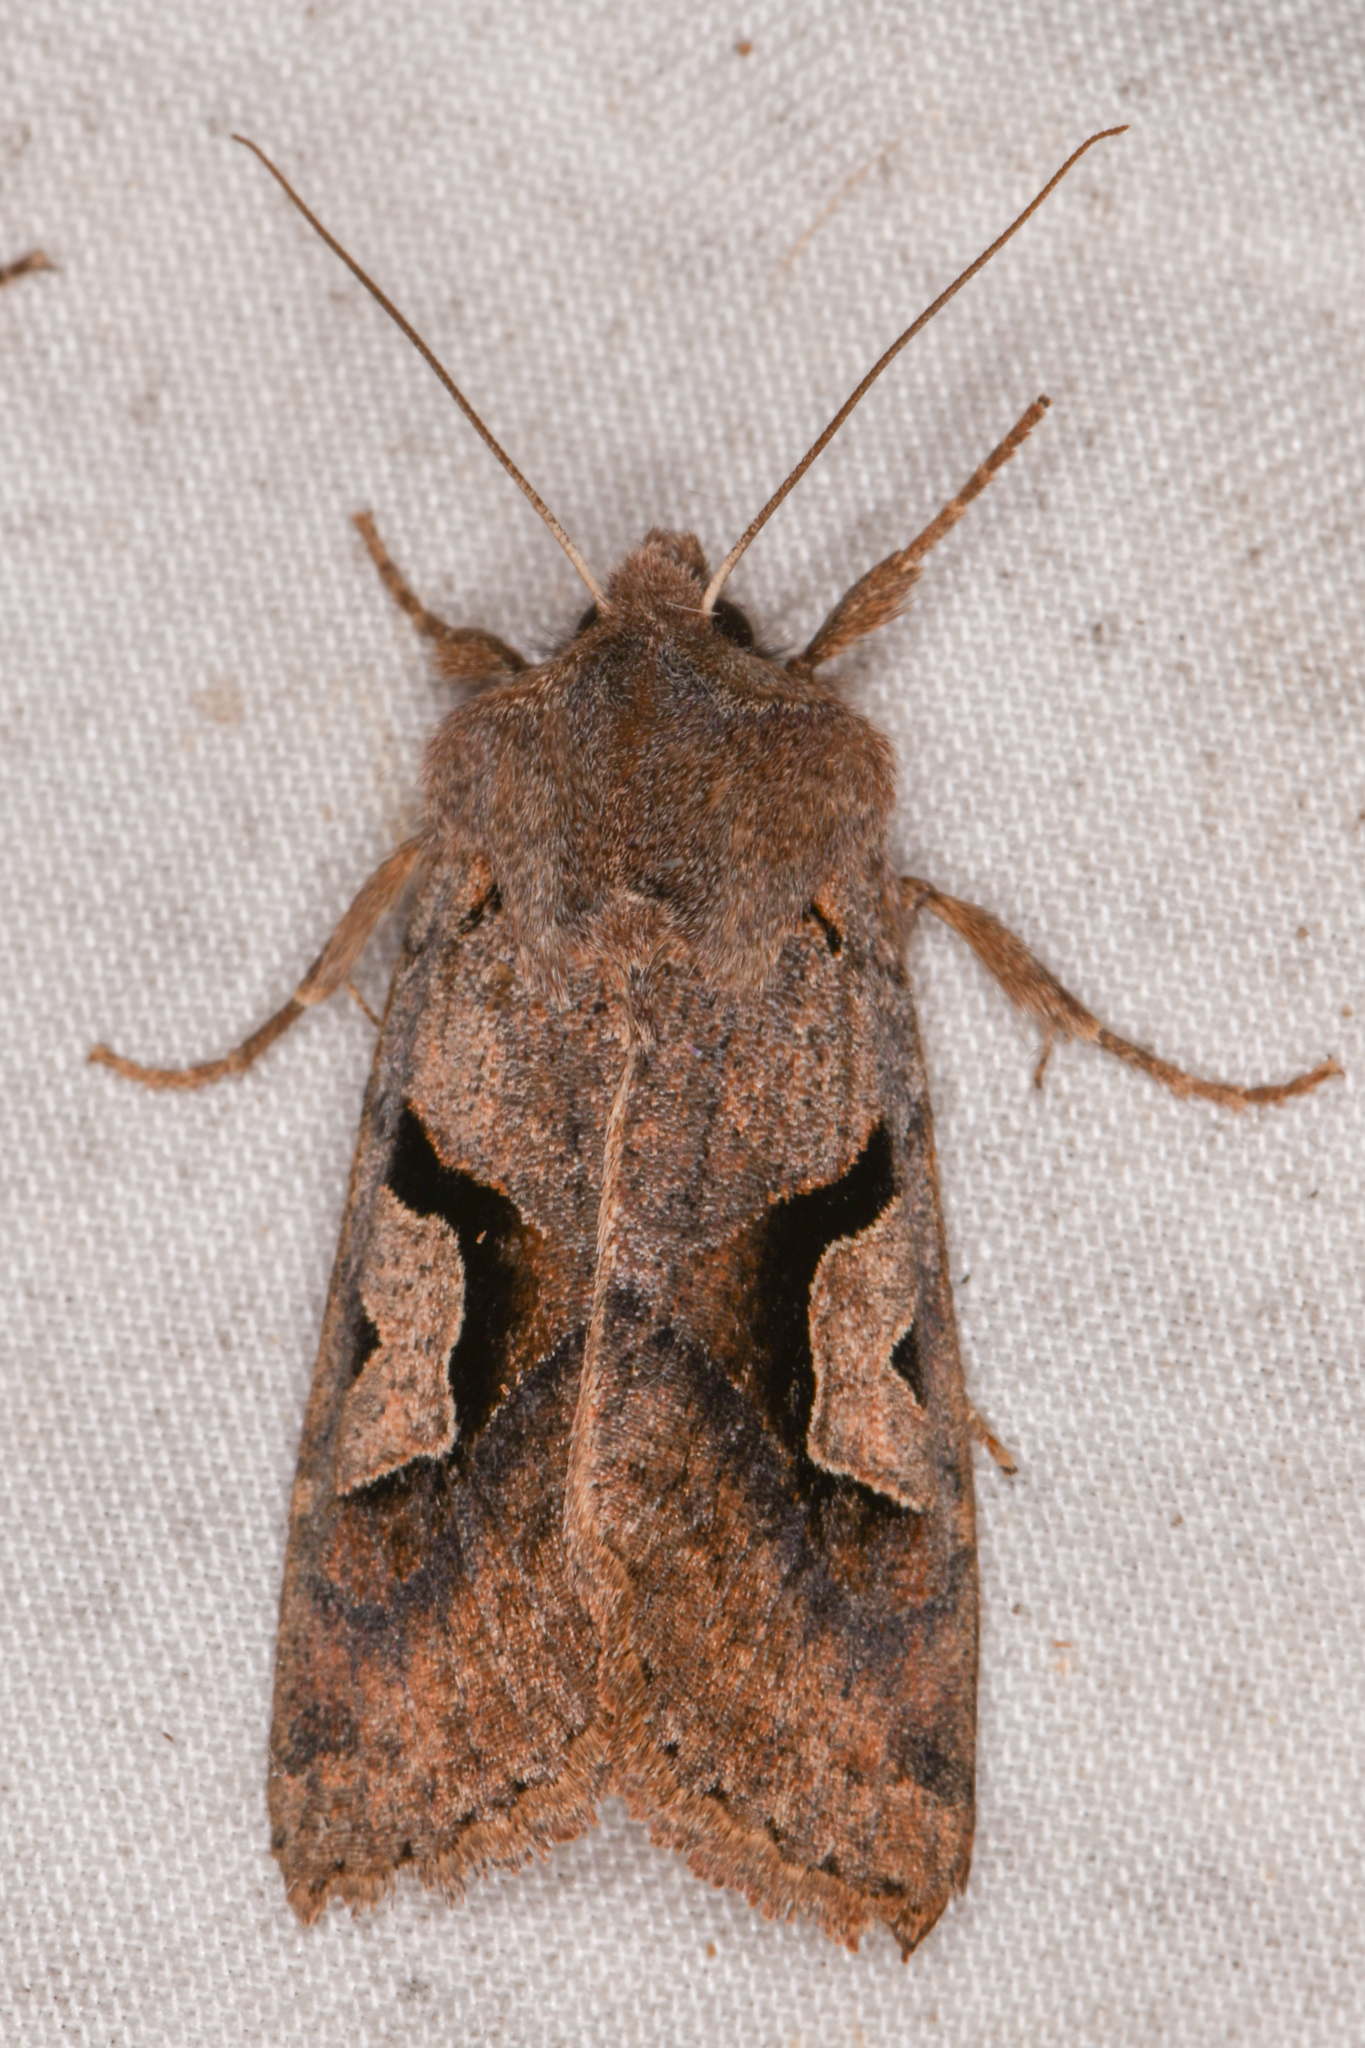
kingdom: Animalia
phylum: Arthropoda
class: Insecta
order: Lepidoptera
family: Noctuidae
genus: Acerra
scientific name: Acerra normalis
